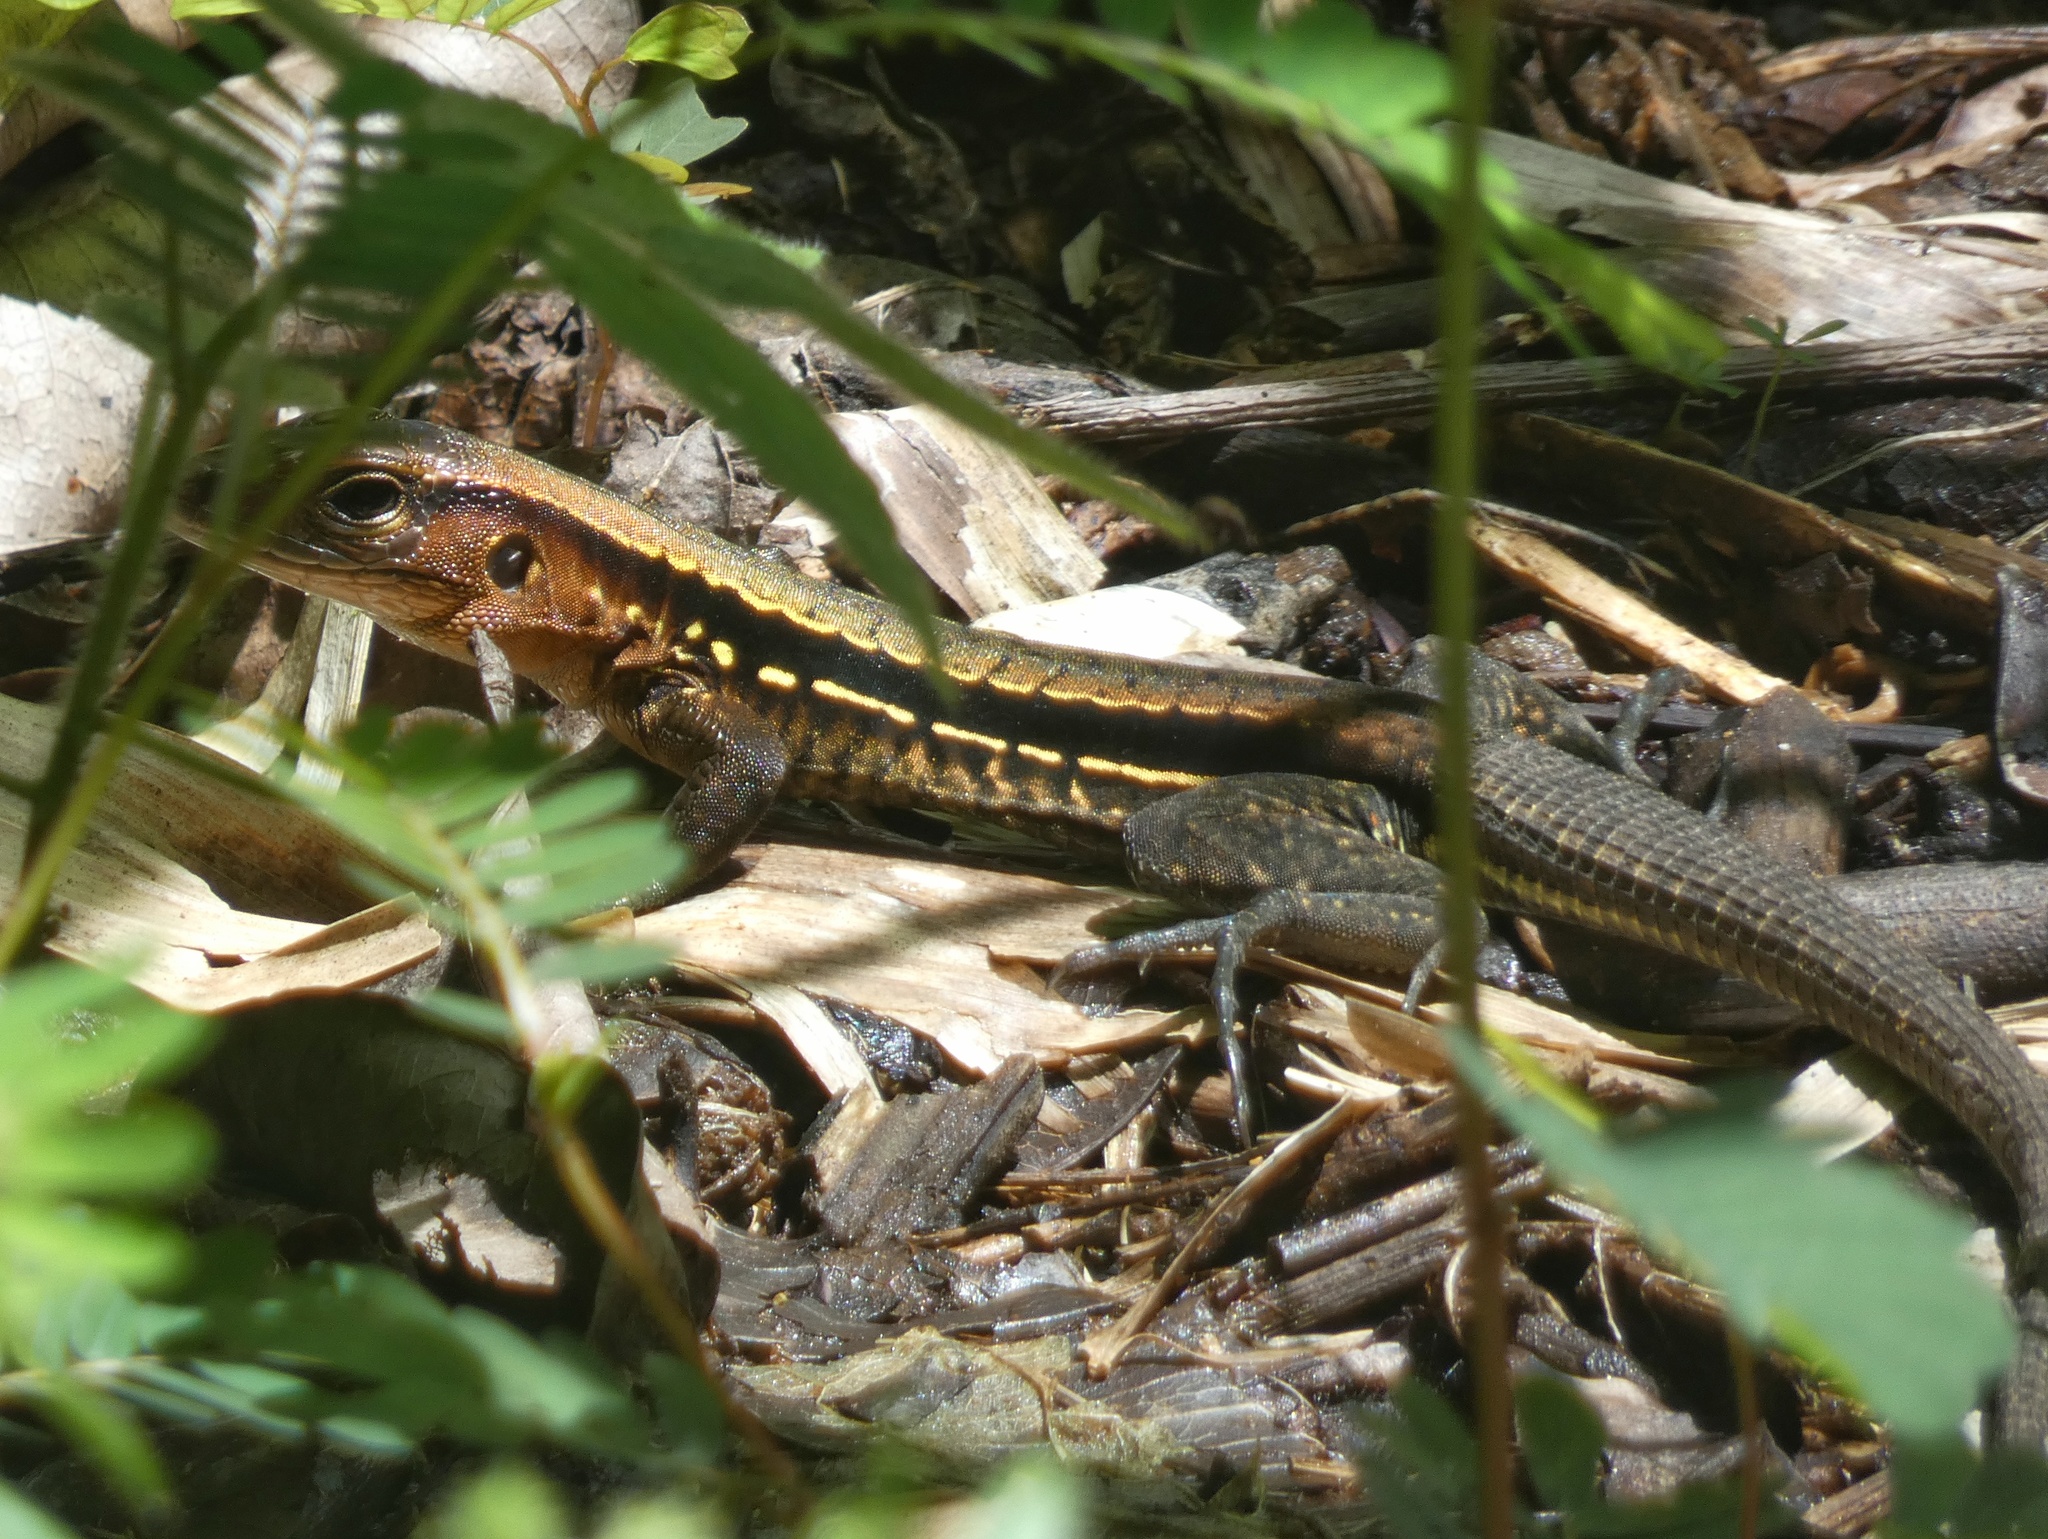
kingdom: Animalia
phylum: Chordata
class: Squamata
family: Teiidae
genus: Holcosus
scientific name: Holcosus leptophrys
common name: Delicate ameiva
